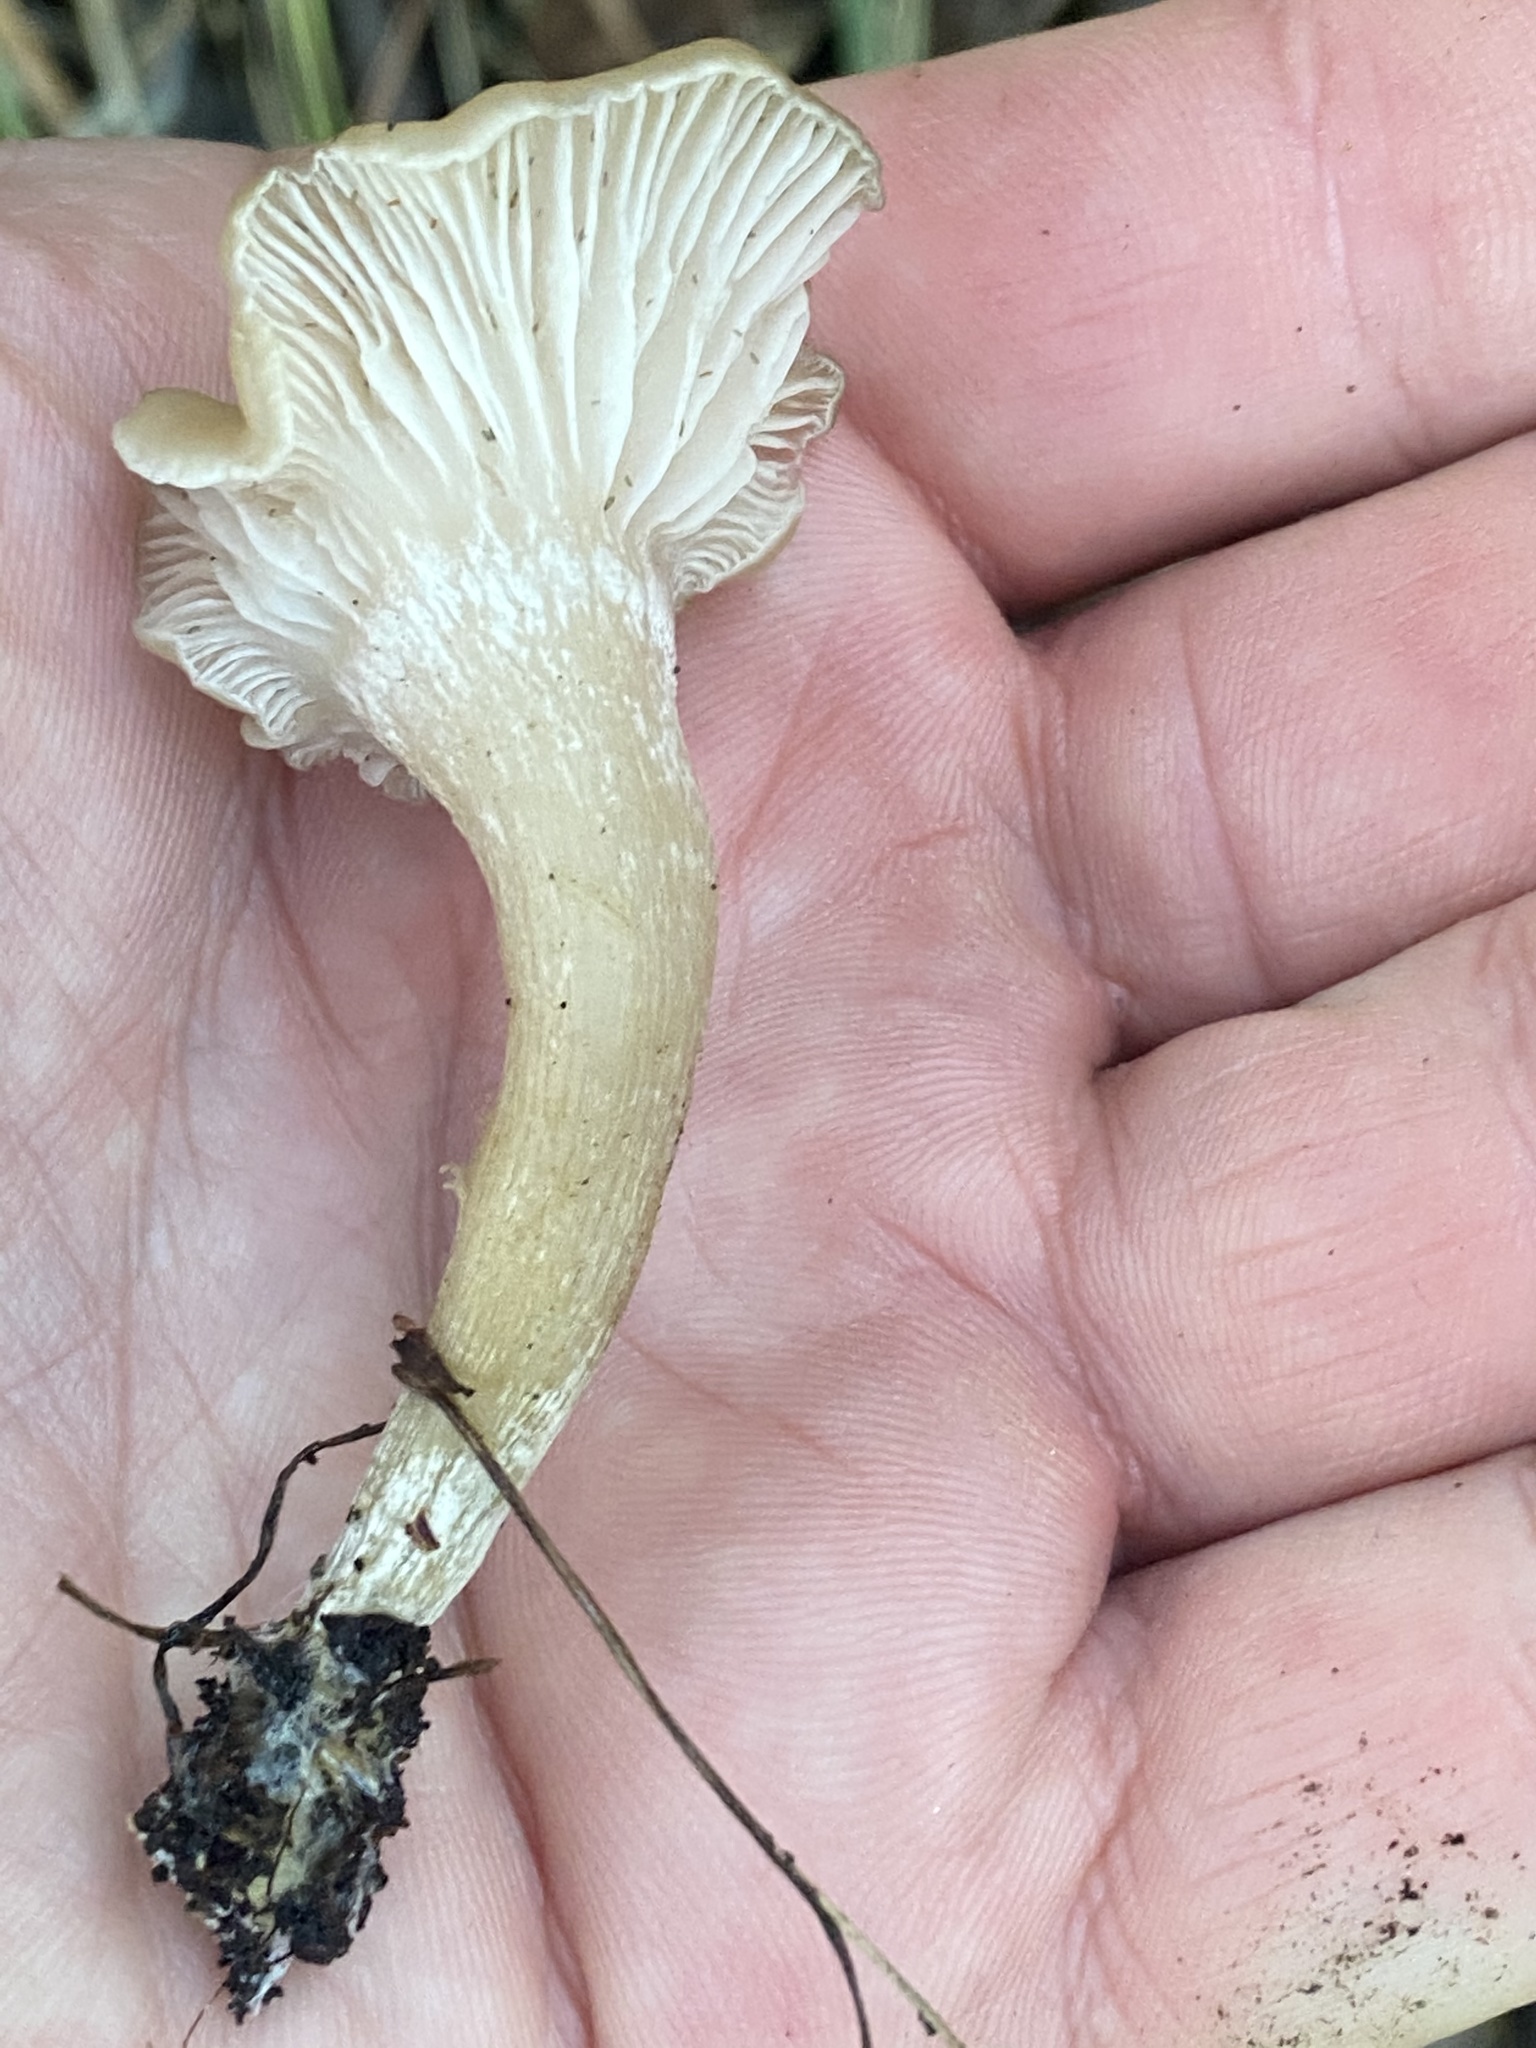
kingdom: Fungi
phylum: Basidiomycota
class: Agaricomycetes
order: Agaricales
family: Tricholomataceae
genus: Clitocybe
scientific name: Clitocybe fragrans
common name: Fragrant funnel
